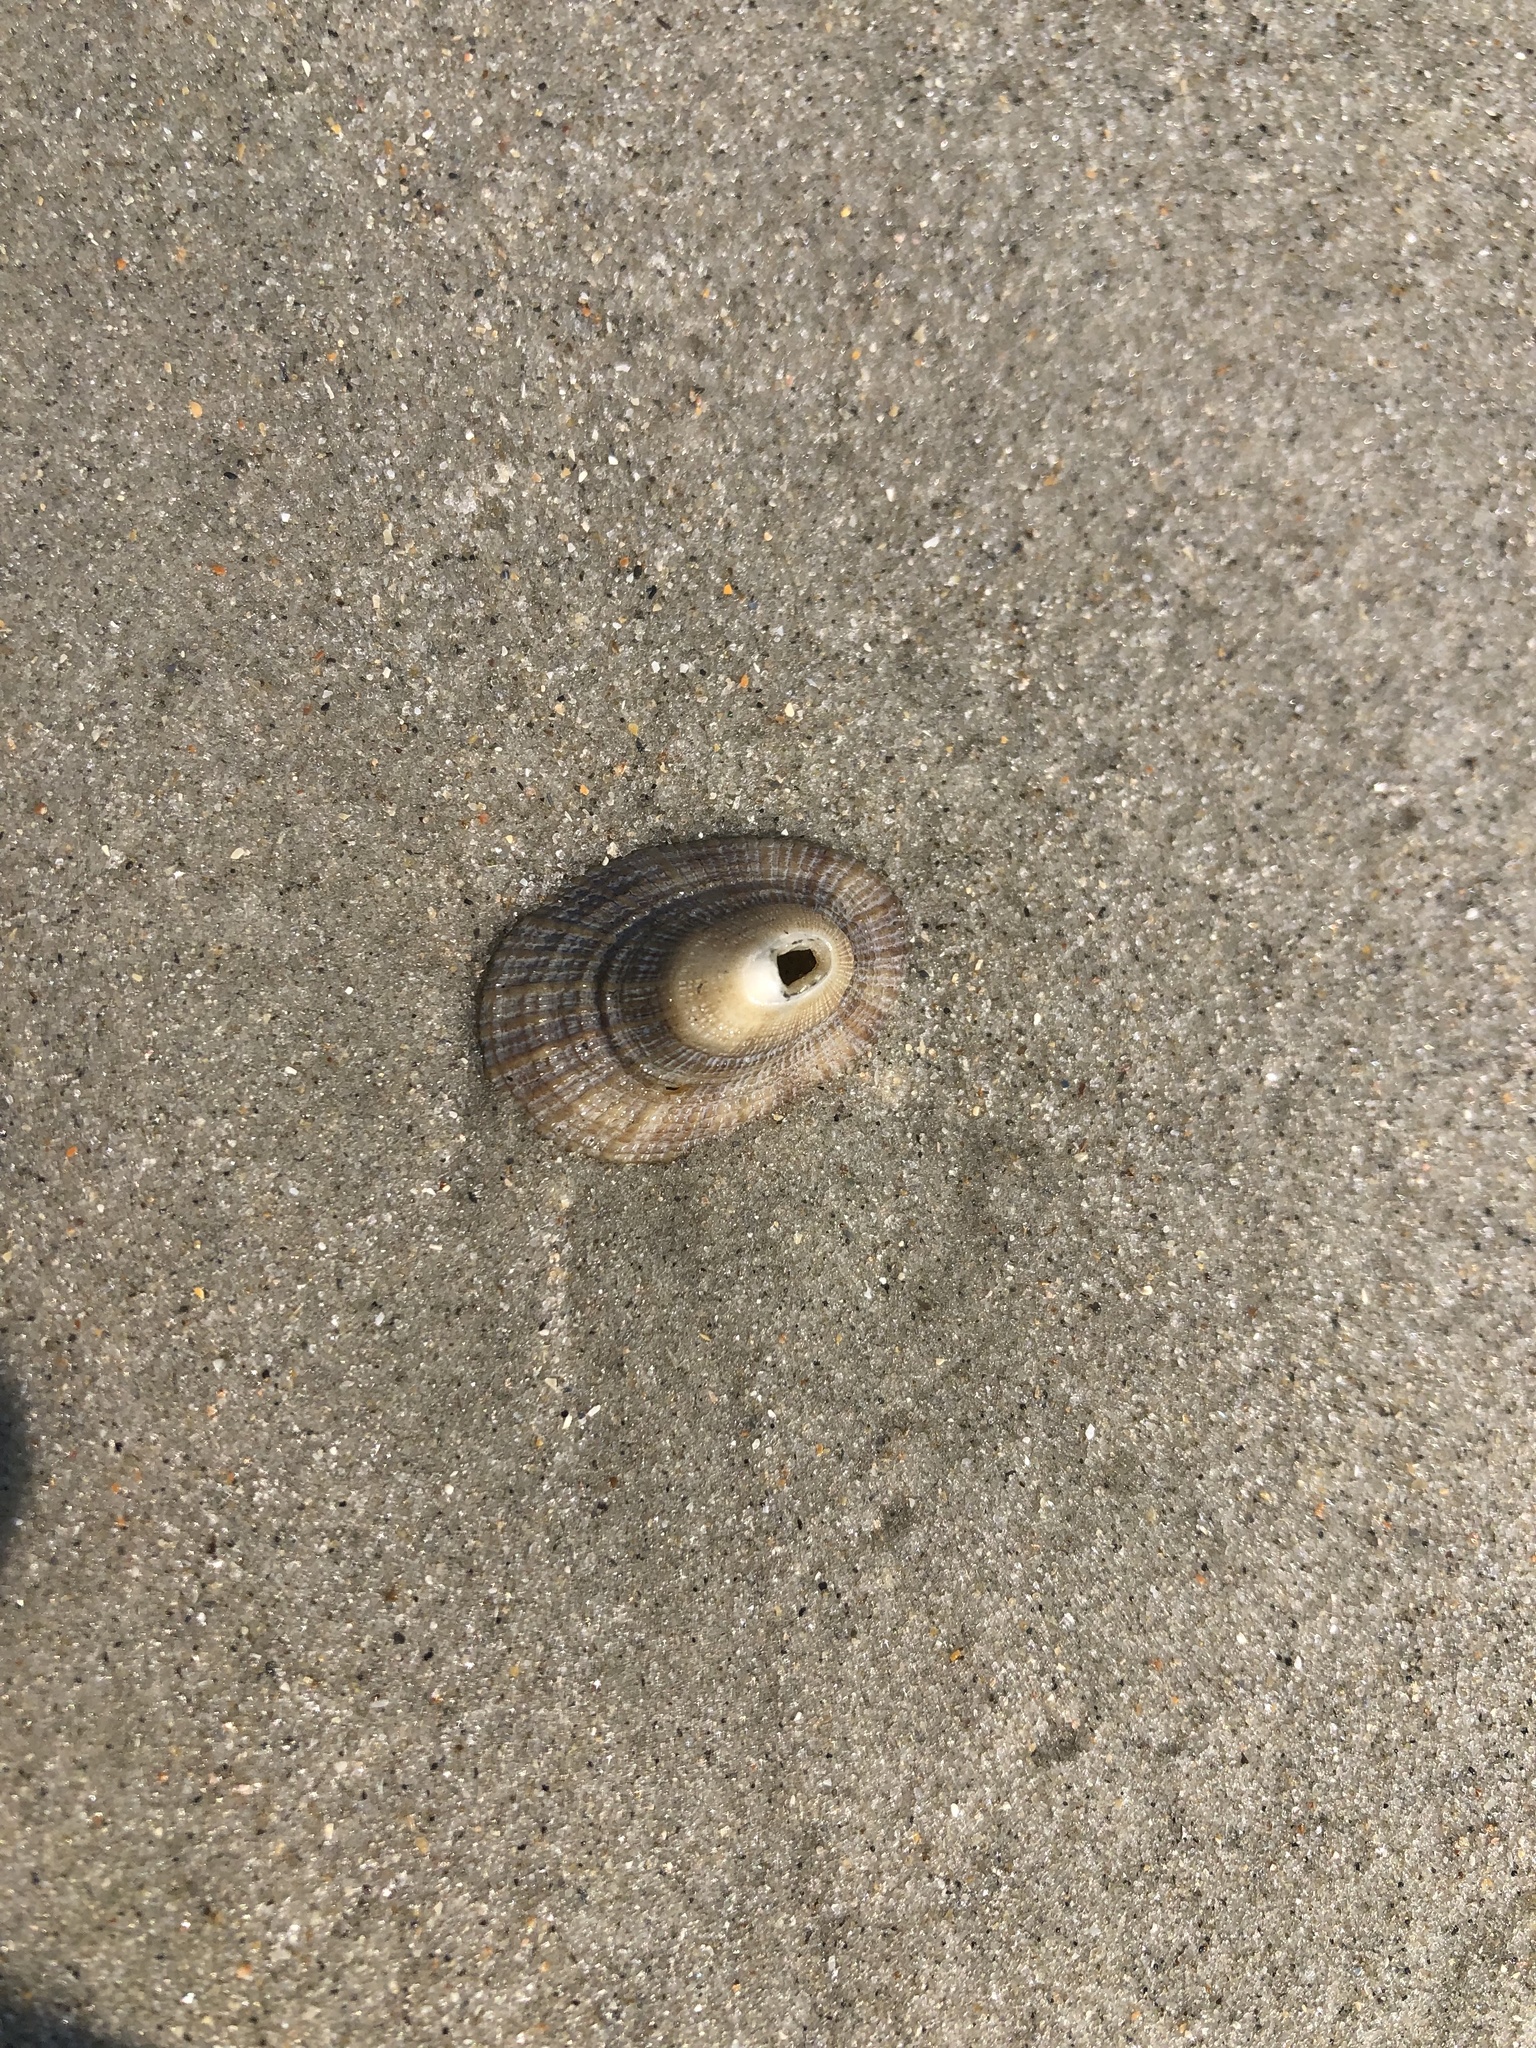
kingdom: Animalia
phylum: Mollusca
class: Gastropoda
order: Lepetellida
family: Fissurellidae
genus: Diodora
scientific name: Diodora cayenensis
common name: Cayenne keyhole limpet
